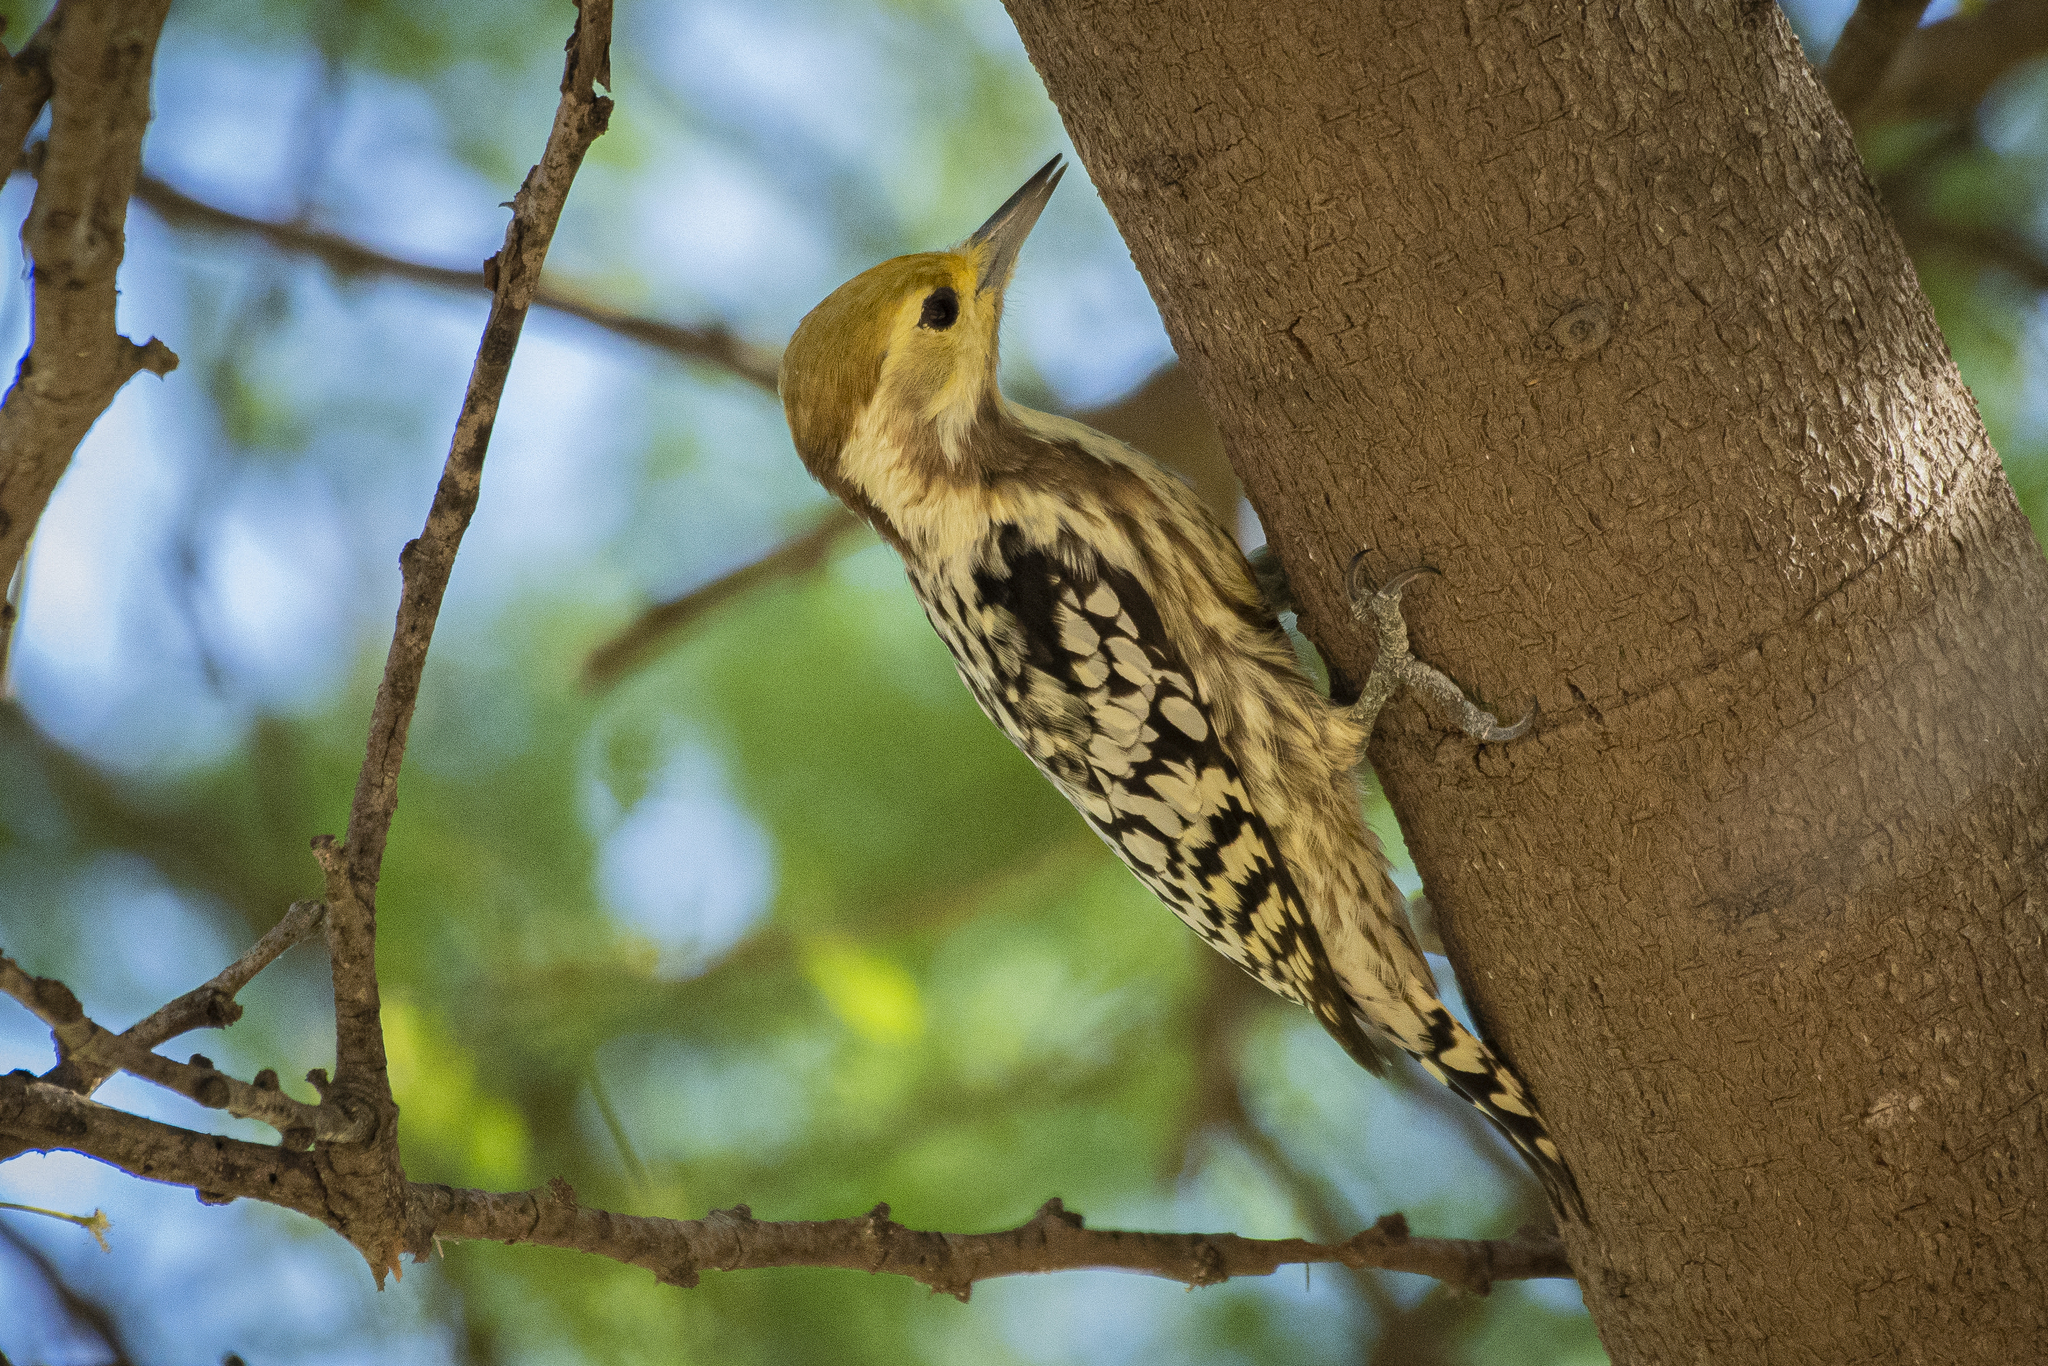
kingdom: Animalia
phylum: Chordata
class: Aves
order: Piciformes
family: Picidae
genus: Leiopicus
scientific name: Leiopicus mahrattensis
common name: Yellow-crowned woodpecker
